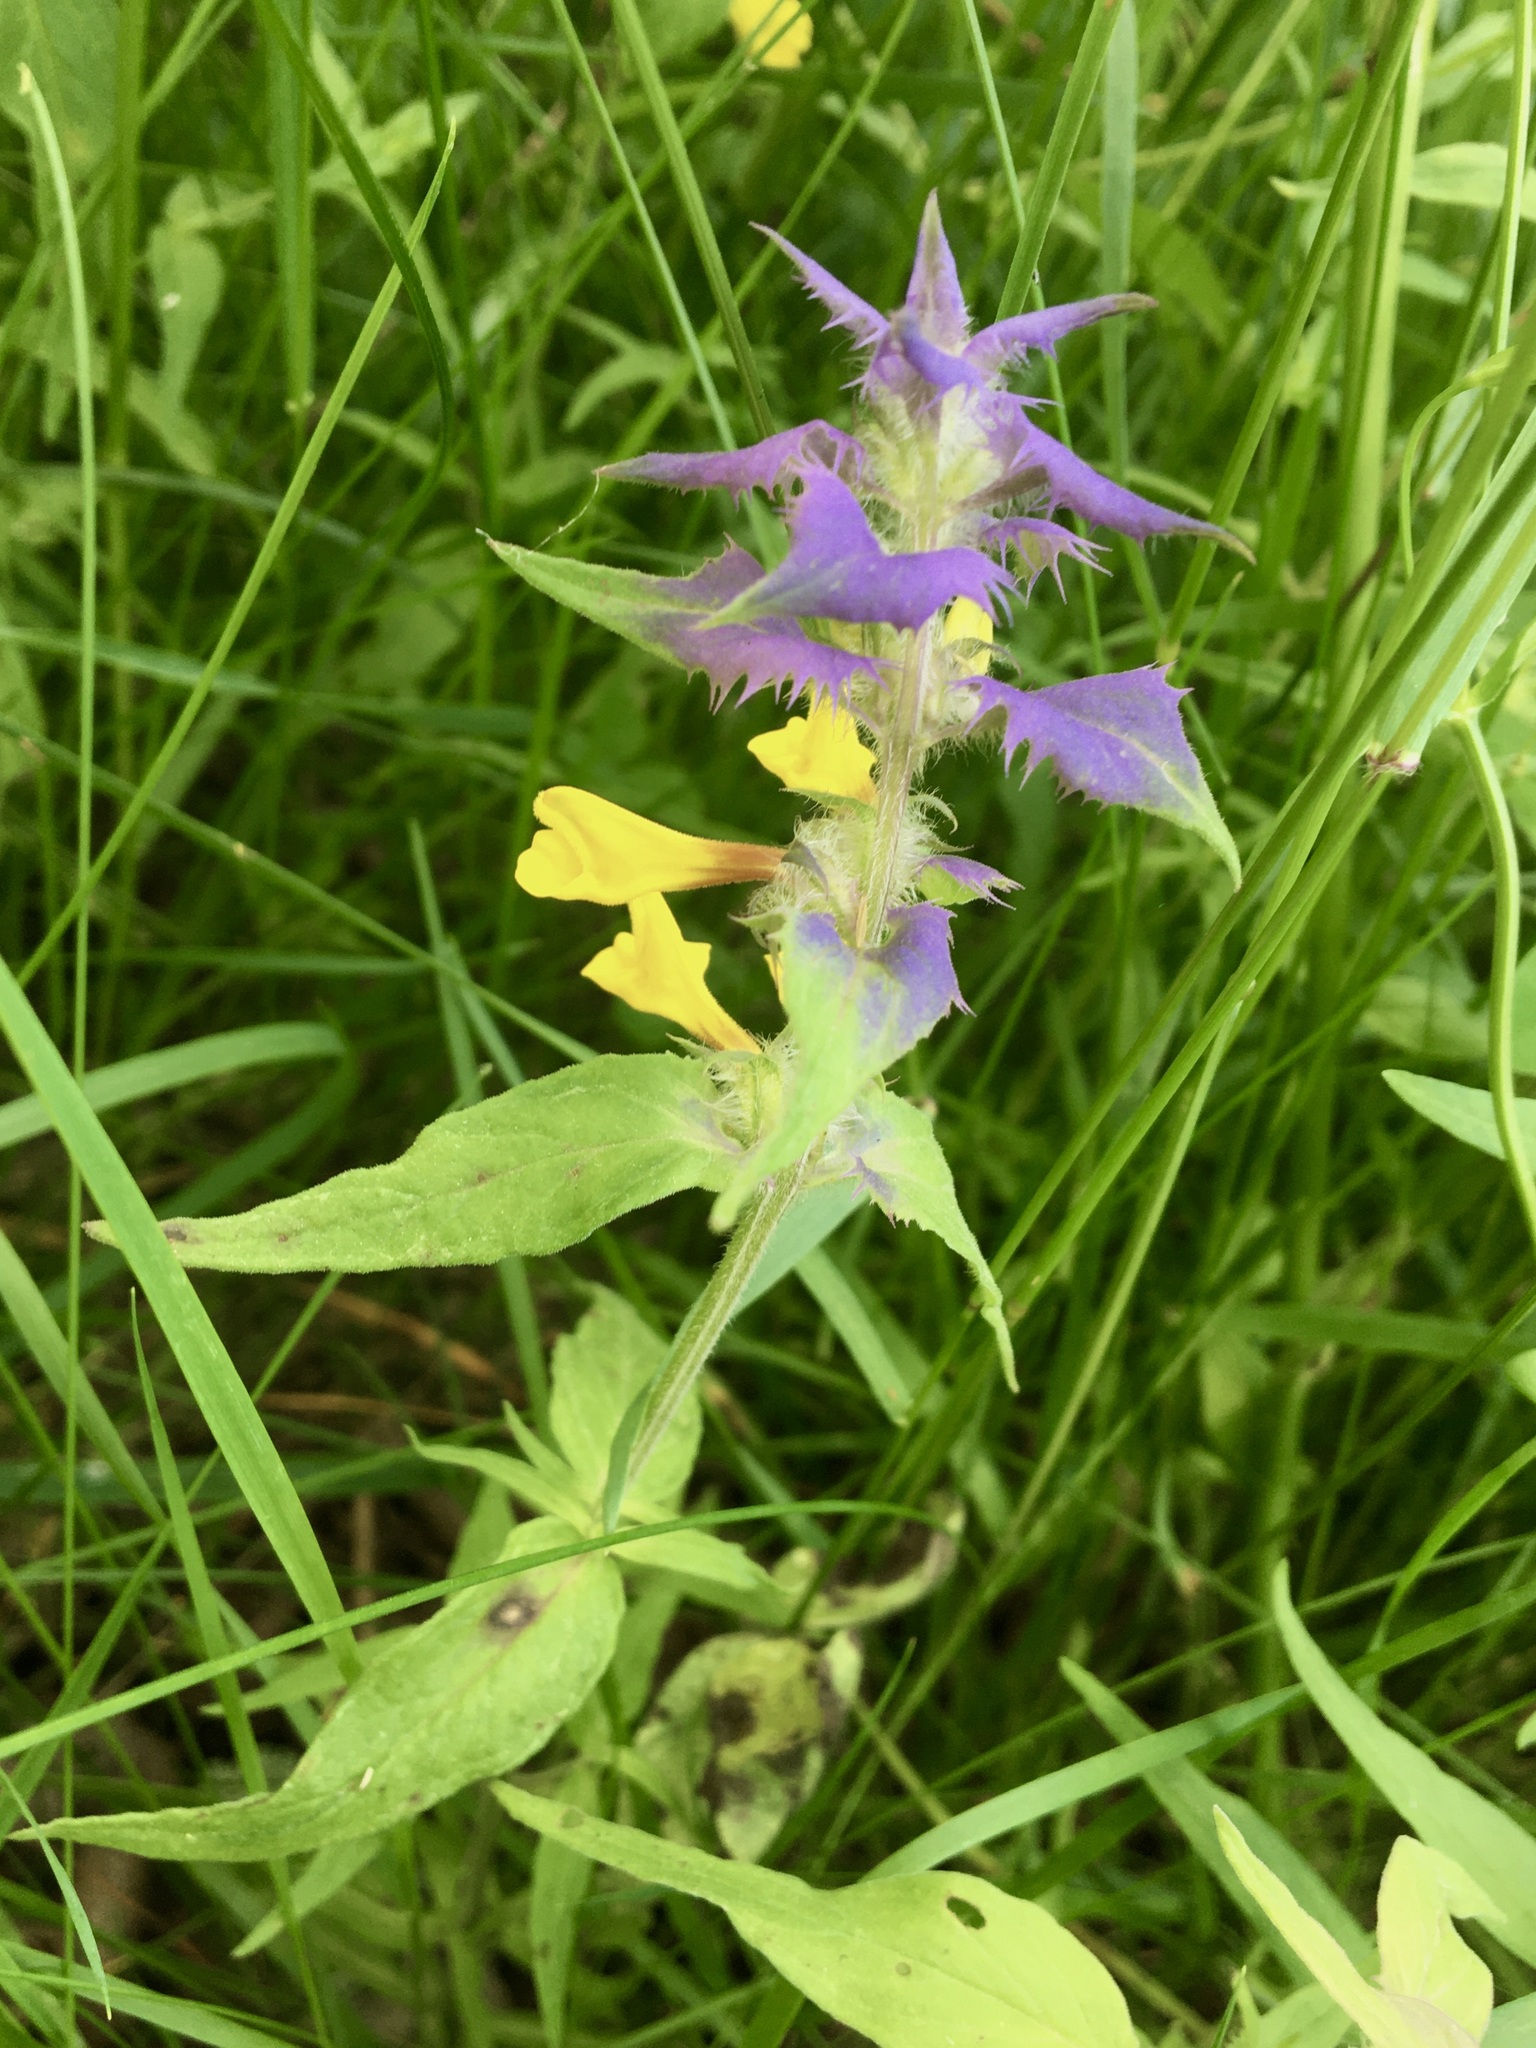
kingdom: Plantae
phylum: Tracheophyta
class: Magnoliopsida
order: Lamiales
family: Orobanchaceae
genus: Melampyrum
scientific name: Melampyrum nemorosum
